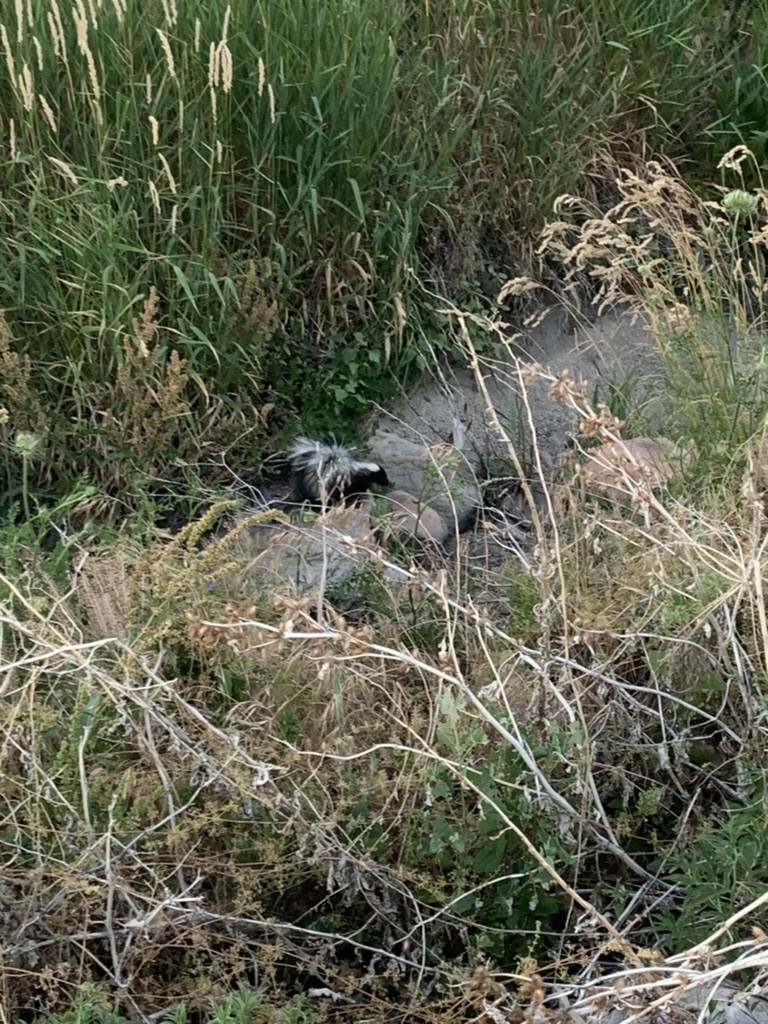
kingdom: Animalia
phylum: Chordata
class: Mammalia
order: Carnivora
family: Mephitidae
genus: Mephitis
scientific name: Mephitis mephitis
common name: Striped skunk
